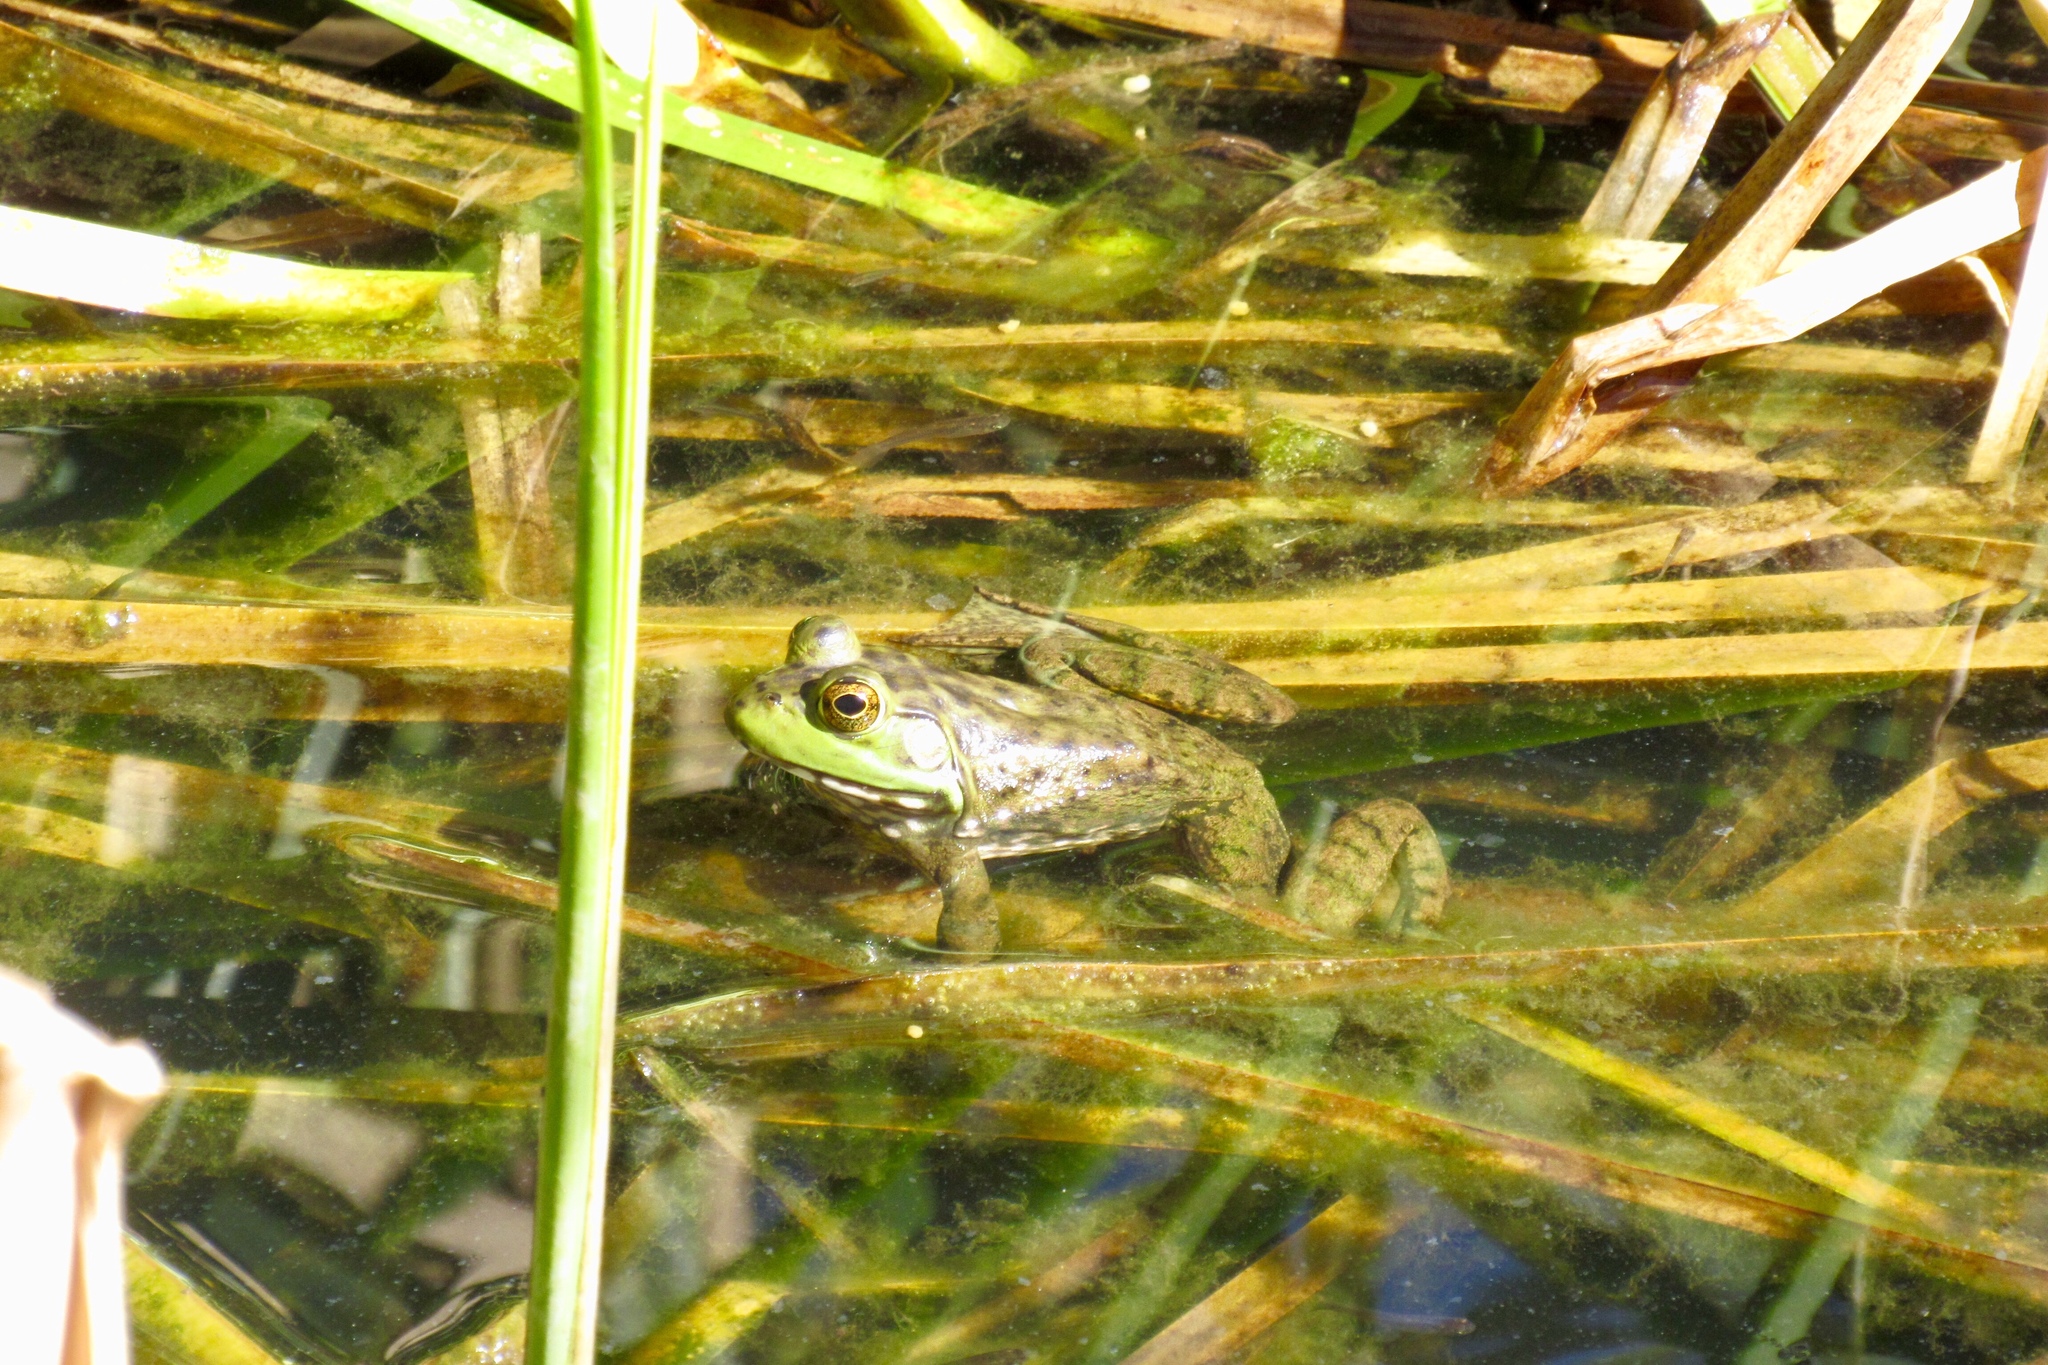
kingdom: Animalia
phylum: Chordata
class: Amphibia
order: Anura
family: Ranidae
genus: Lithobates
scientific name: Lithobates catesbeianus
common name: American bullfrog
